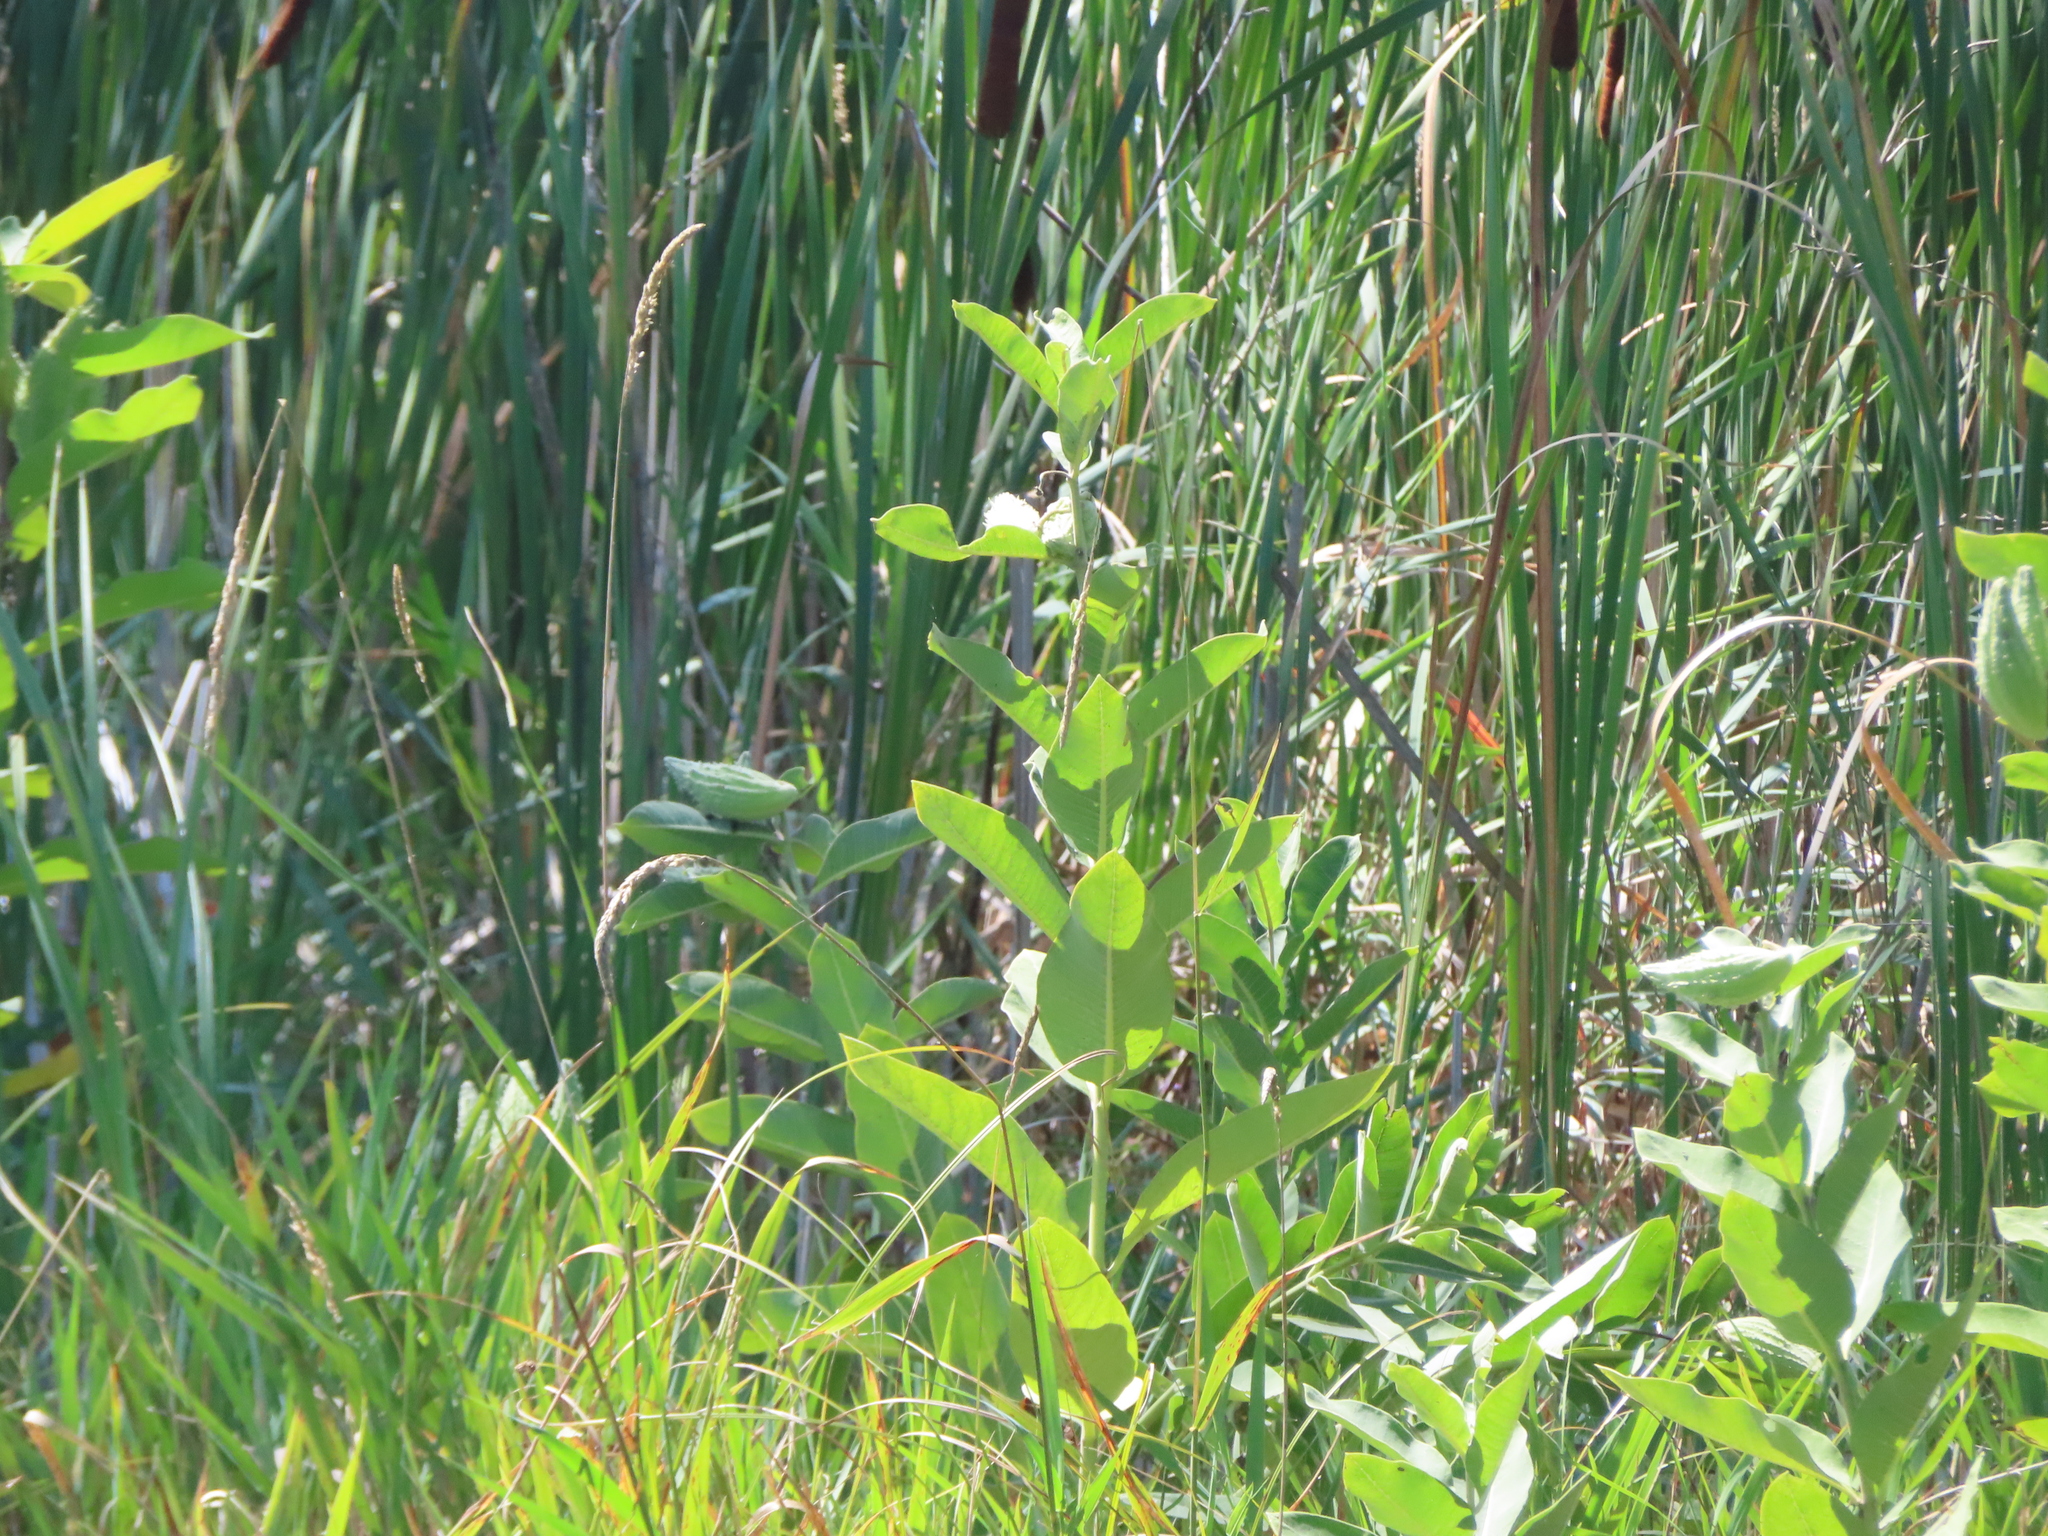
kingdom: Plantae
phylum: Tracheophyta
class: Magnoliopsida
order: Gentianales
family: Apocynaceae
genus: Asclepias
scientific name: Asclepias syriaca
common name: Common milkweed
